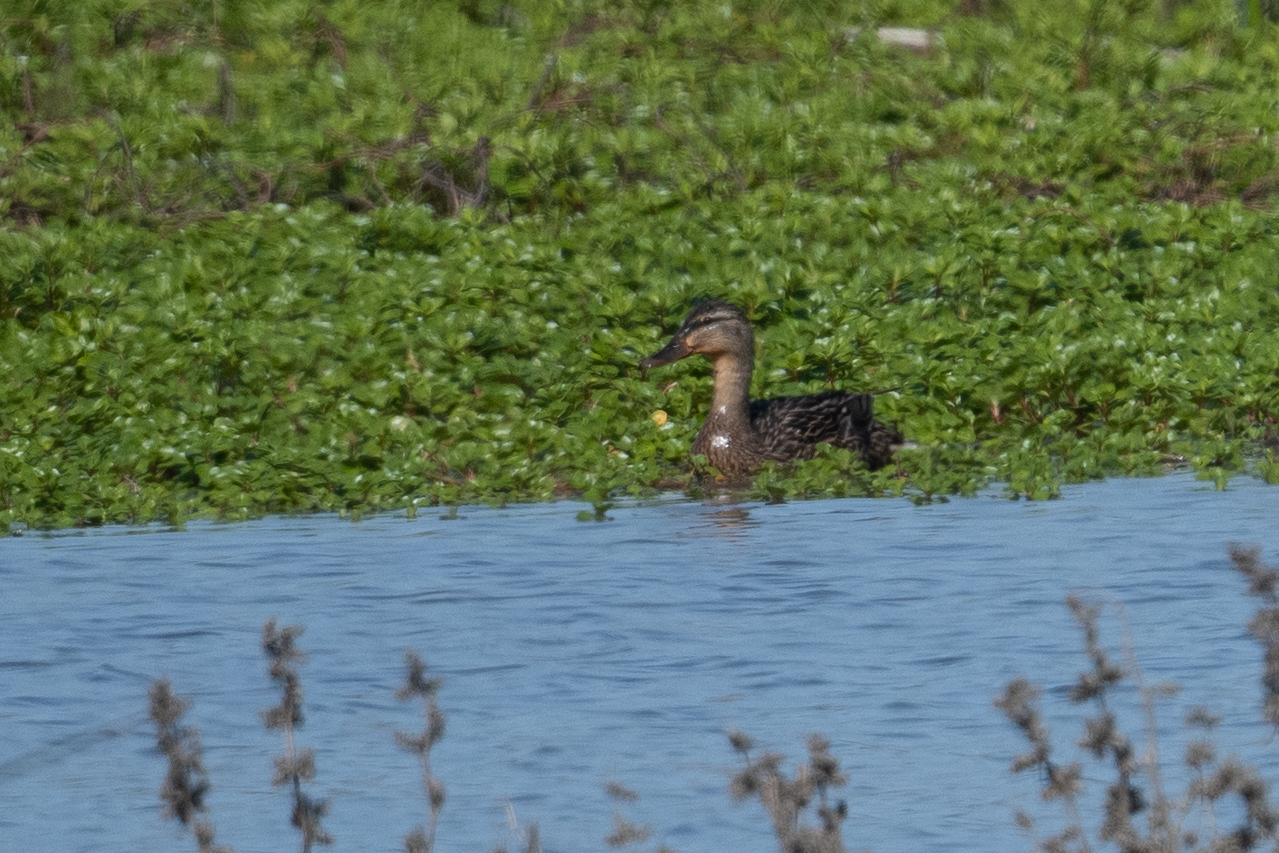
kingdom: Animalia
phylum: Chordata
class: Aves
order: Anseriformes
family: Anatidae
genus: Anas
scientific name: Anas platyrhynchos
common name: Mallard
